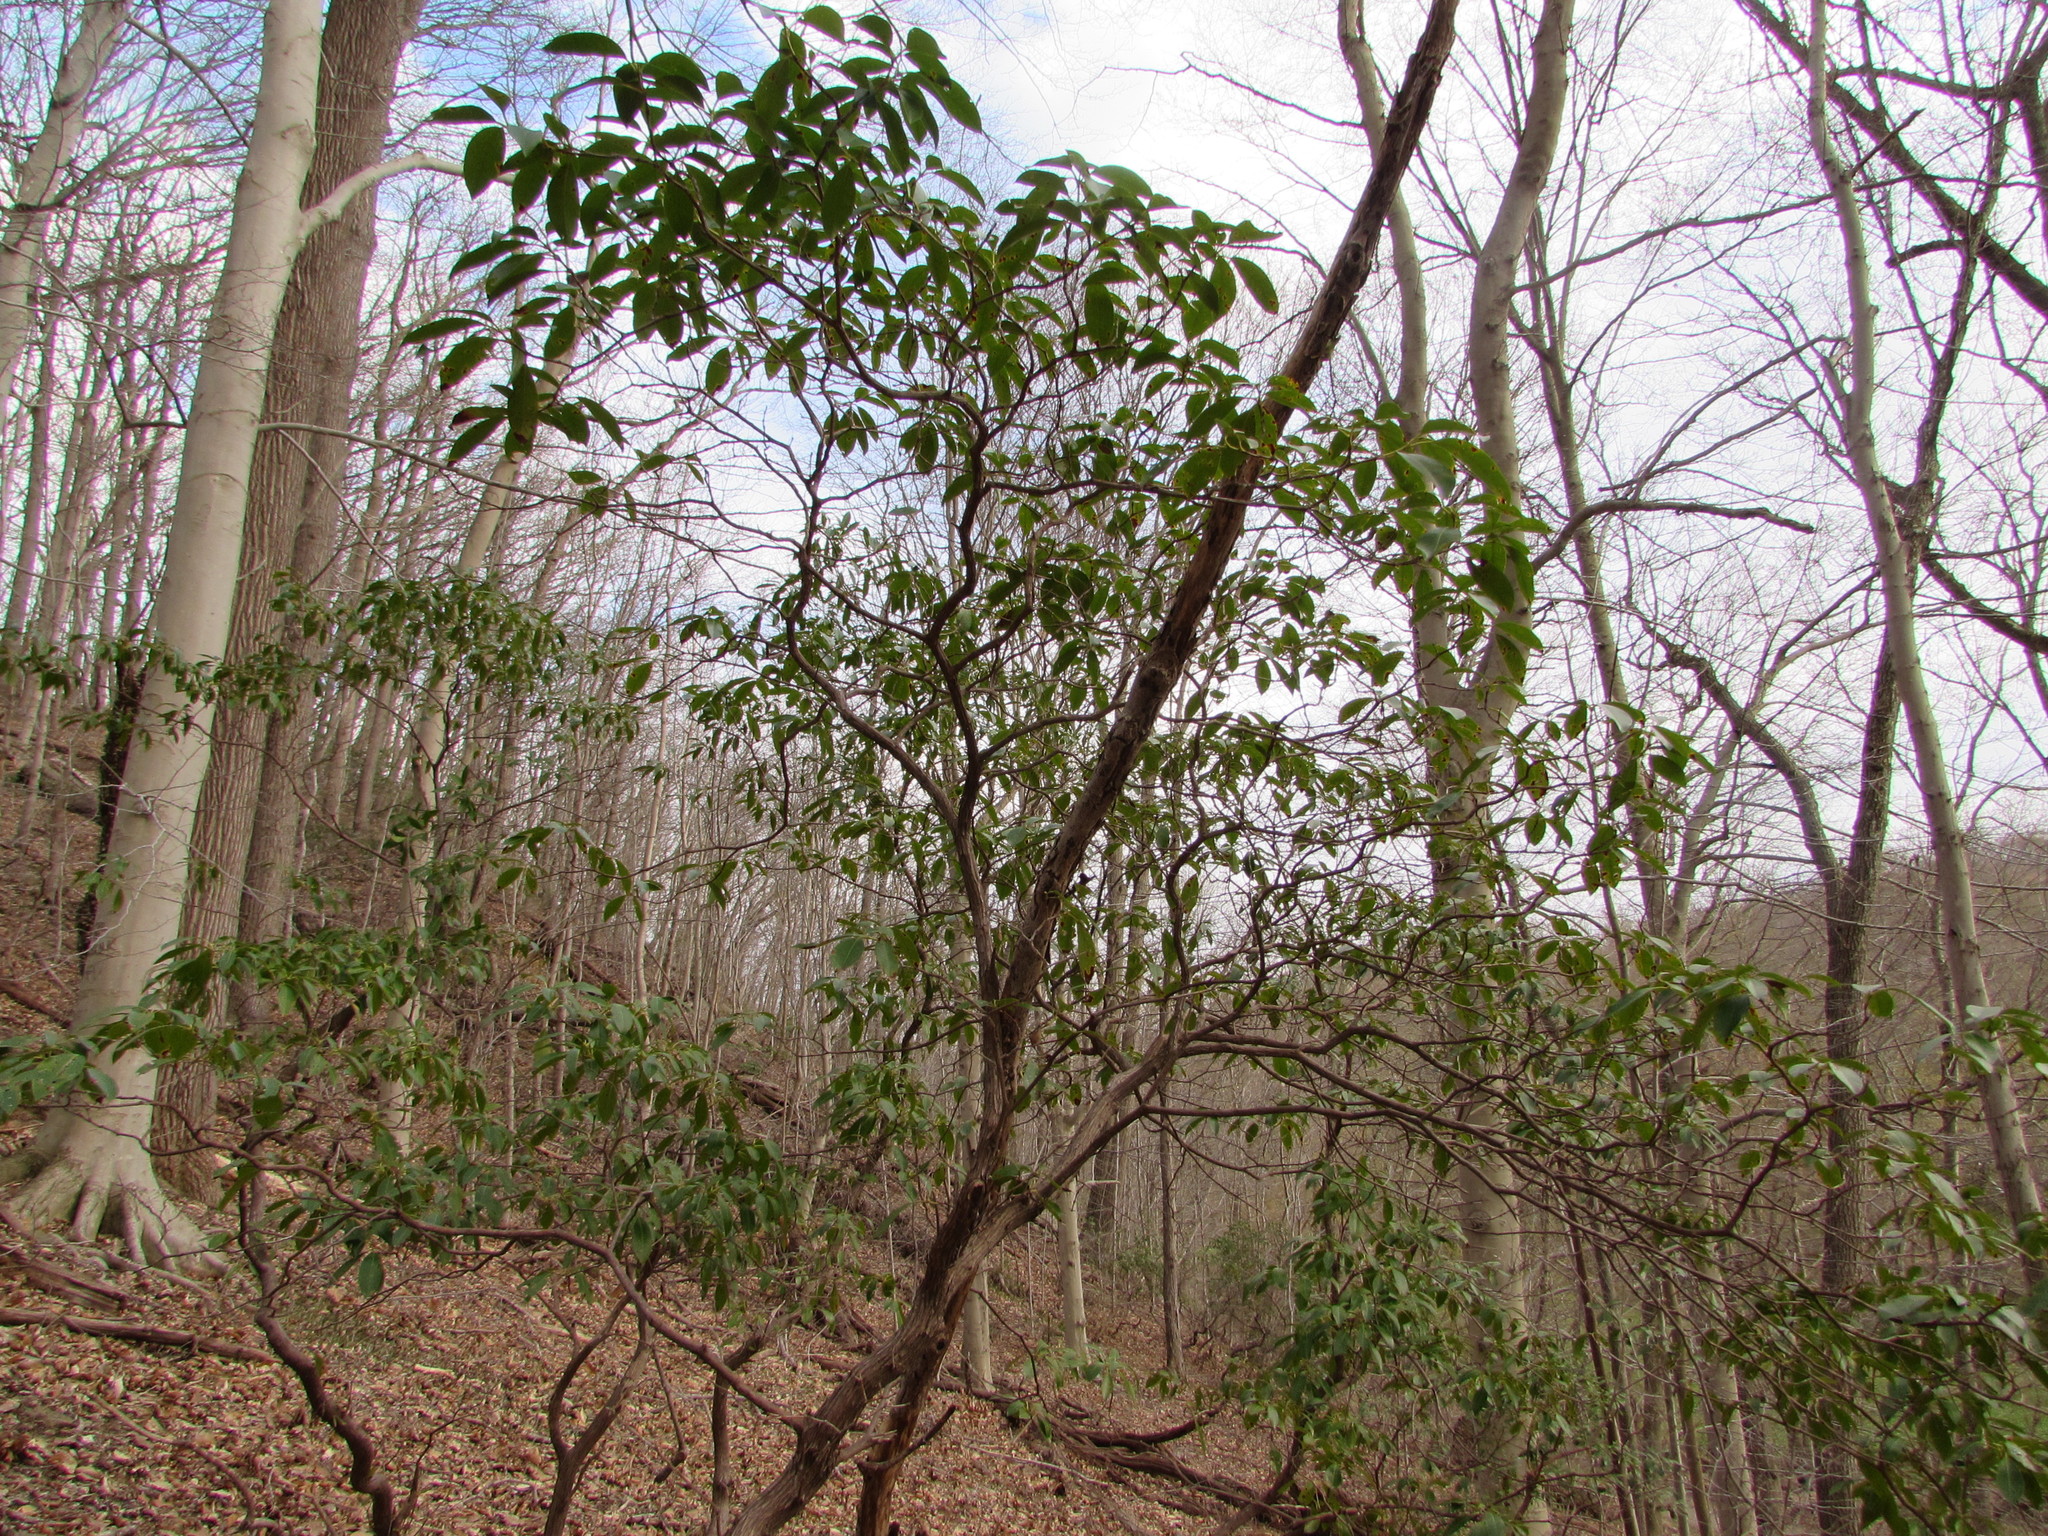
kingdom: Plantae
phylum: Tracheophyta
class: Magnoliopsida
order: Ericales
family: Ericaceae
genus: Kalmia
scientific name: Kalmia latifolia
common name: Mountain-laurel
